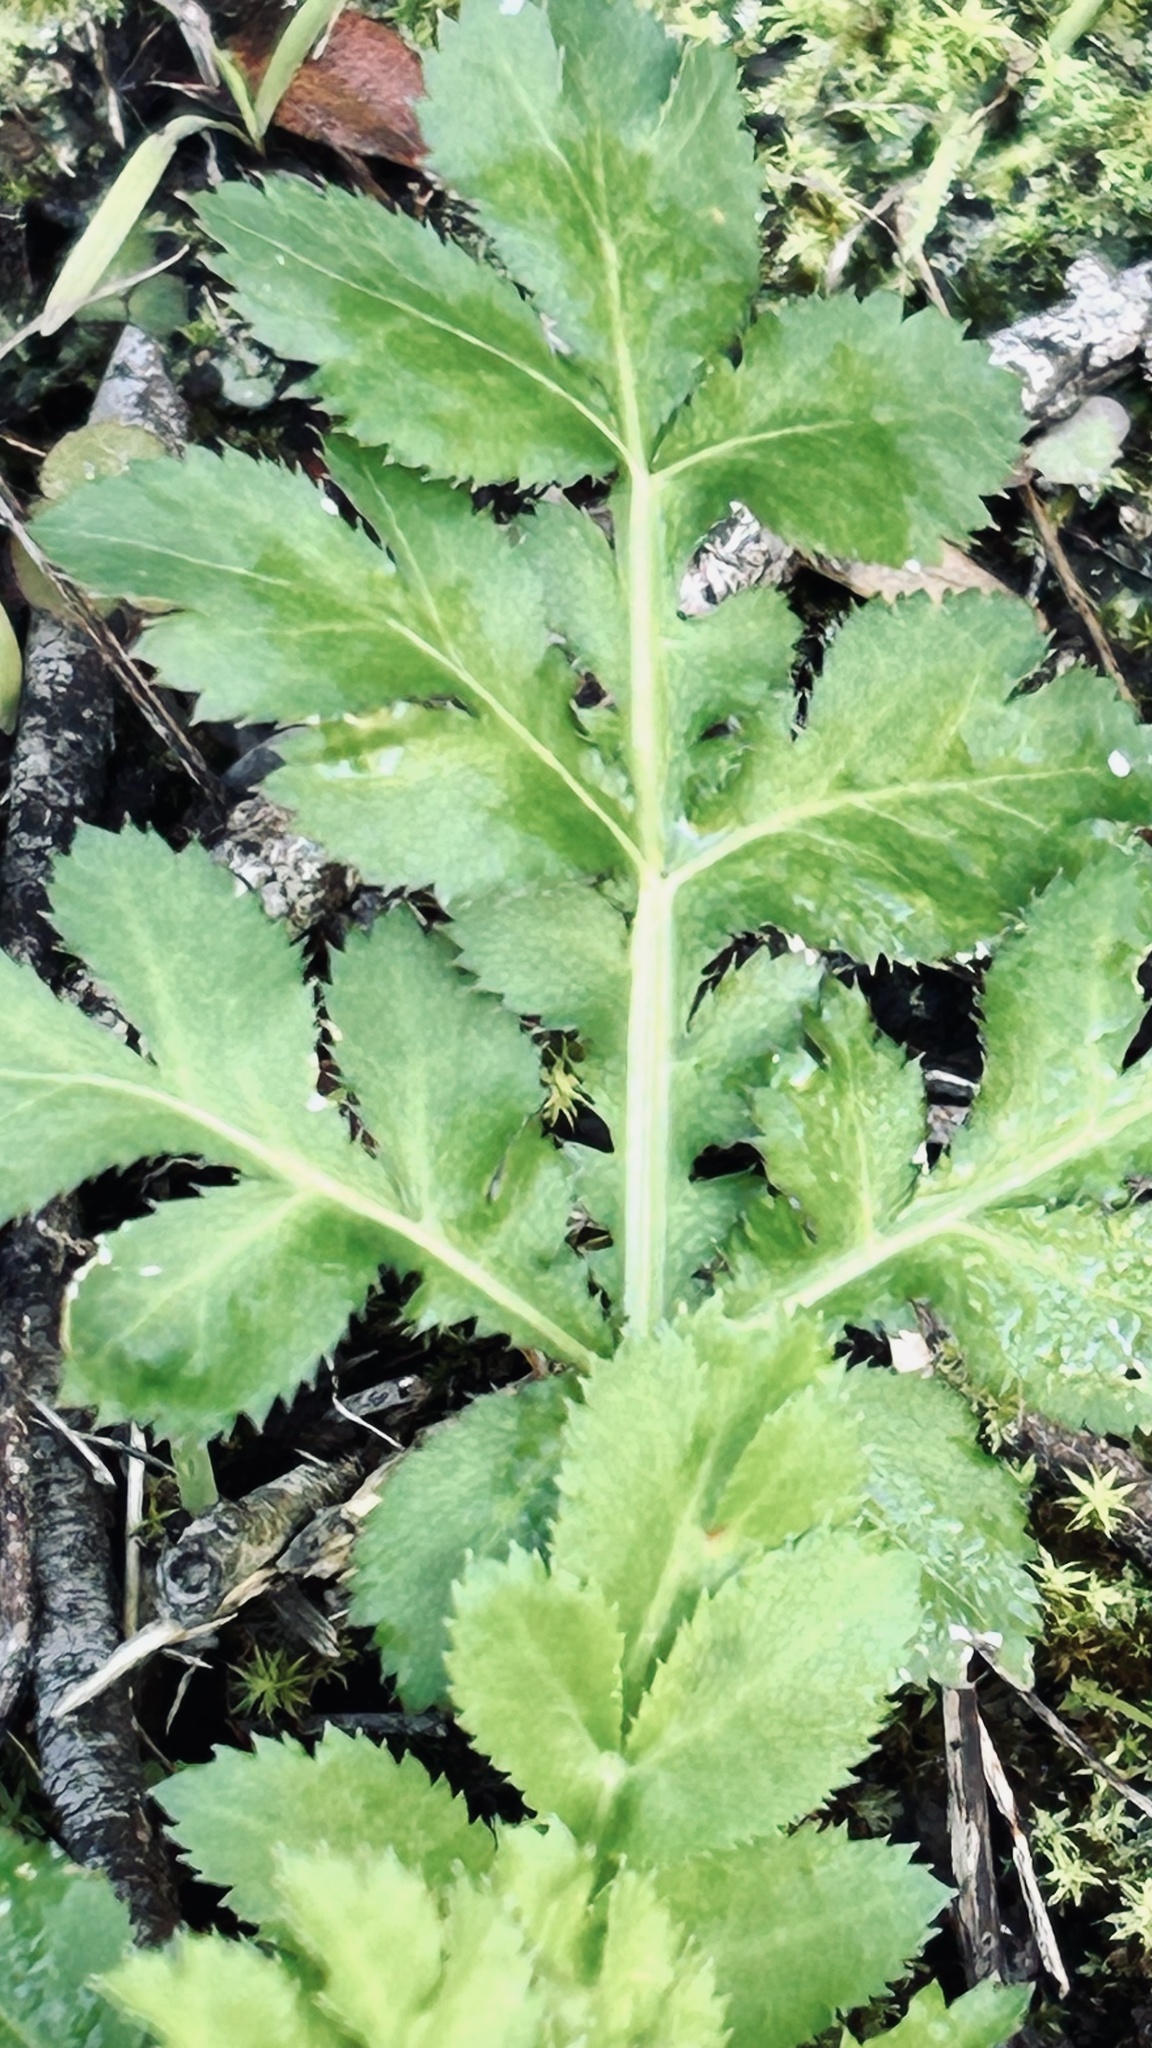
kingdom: Plantae
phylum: Tracheophyta
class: Magnoliopsida
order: Apiales
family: Apiaceae
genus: Lichtensteinia
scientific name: Lichtensteinia interrupta
